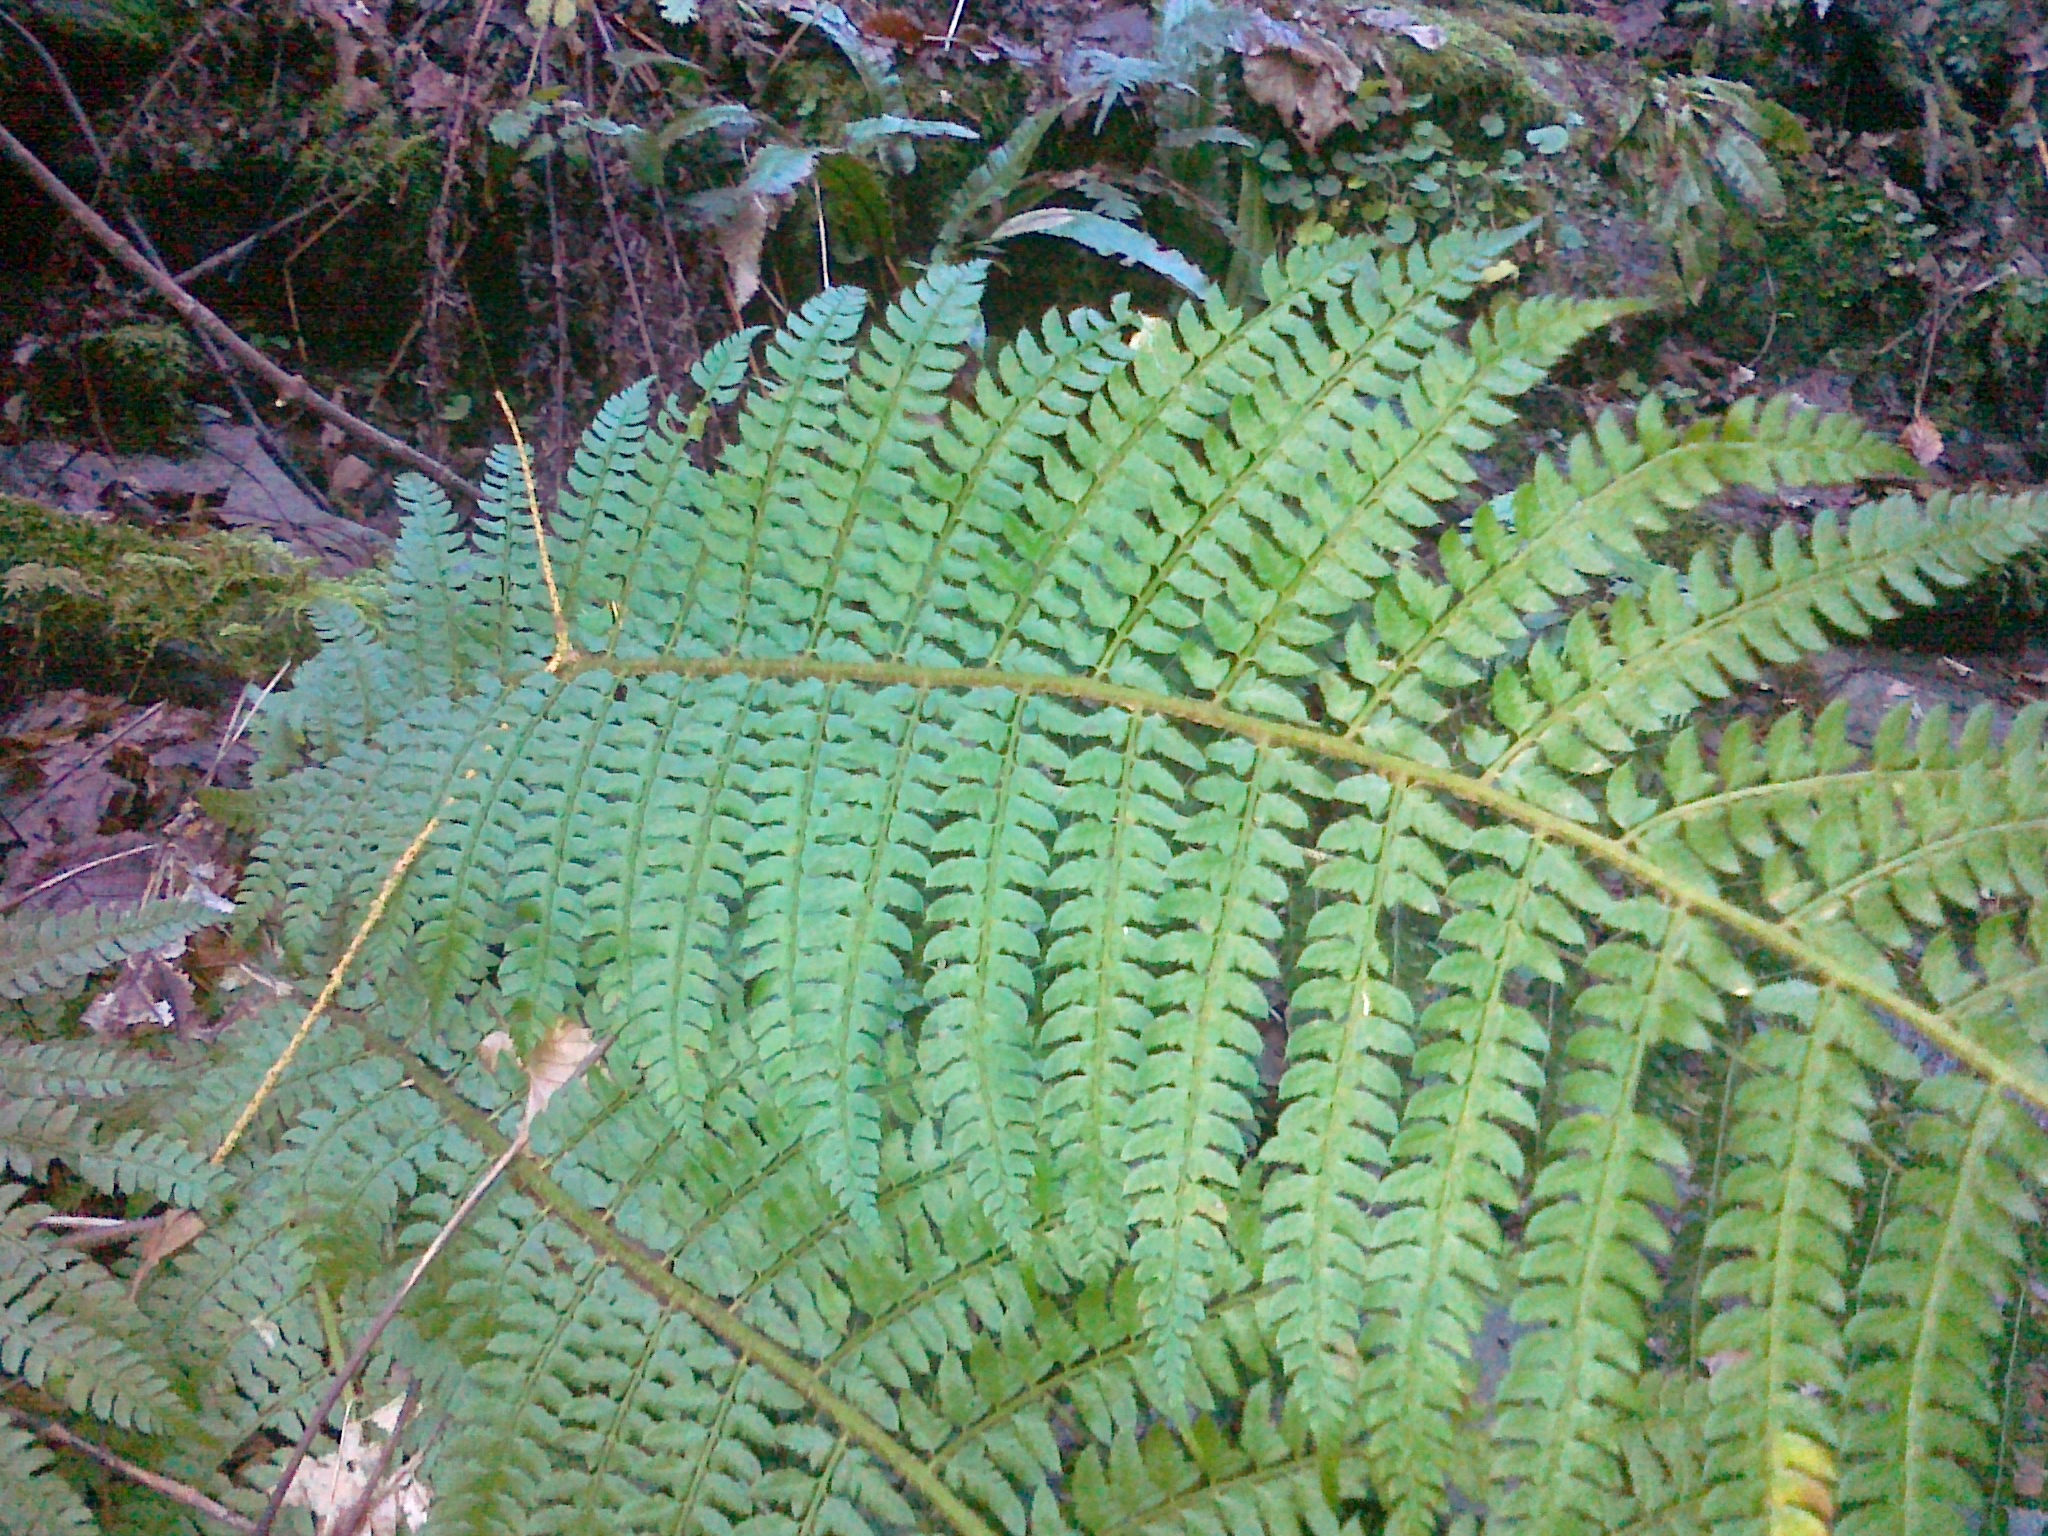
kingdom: Plantae
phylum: Tracheophyta
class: Polypodiopsida
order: Polypodiales
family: Dryopteridaceae
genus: Polystichum
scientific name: Polystichum setiferum
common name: Soft shield-fern
